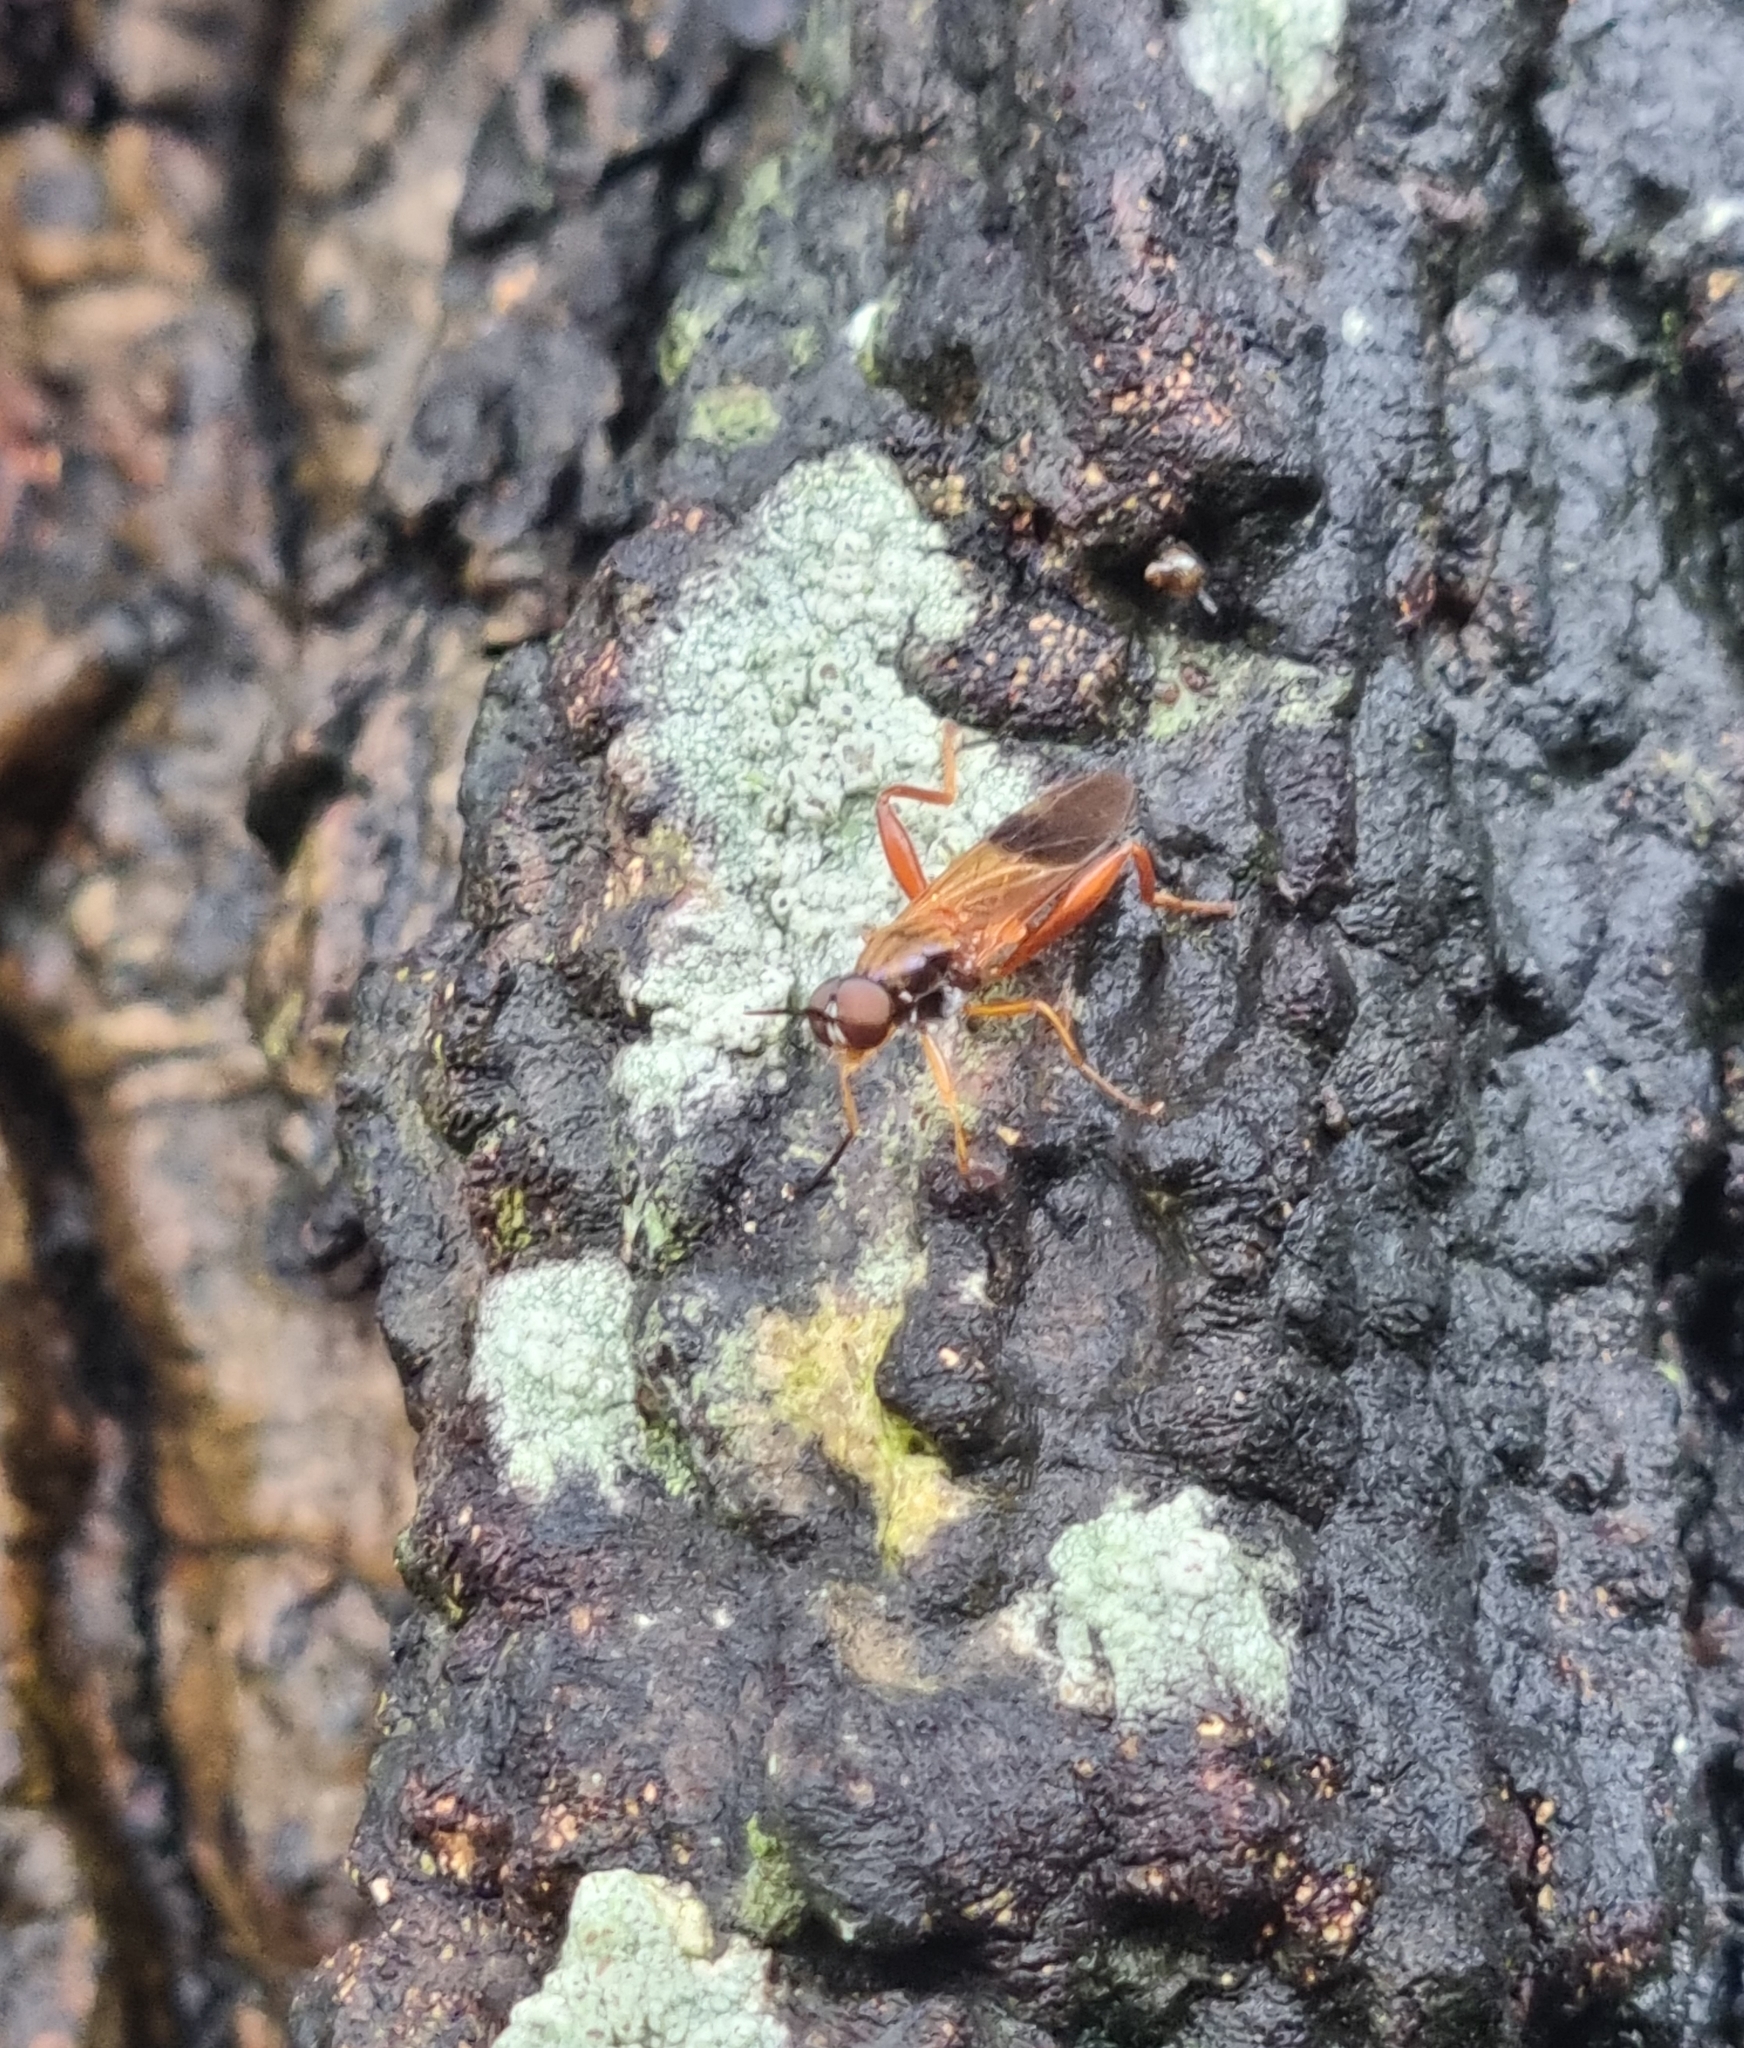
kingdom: Animalia
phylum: Arthropoda
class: Insecta
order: Diptera
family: Stratiomyidae
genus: Benhamyia
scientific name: Benhamyia apicalis
